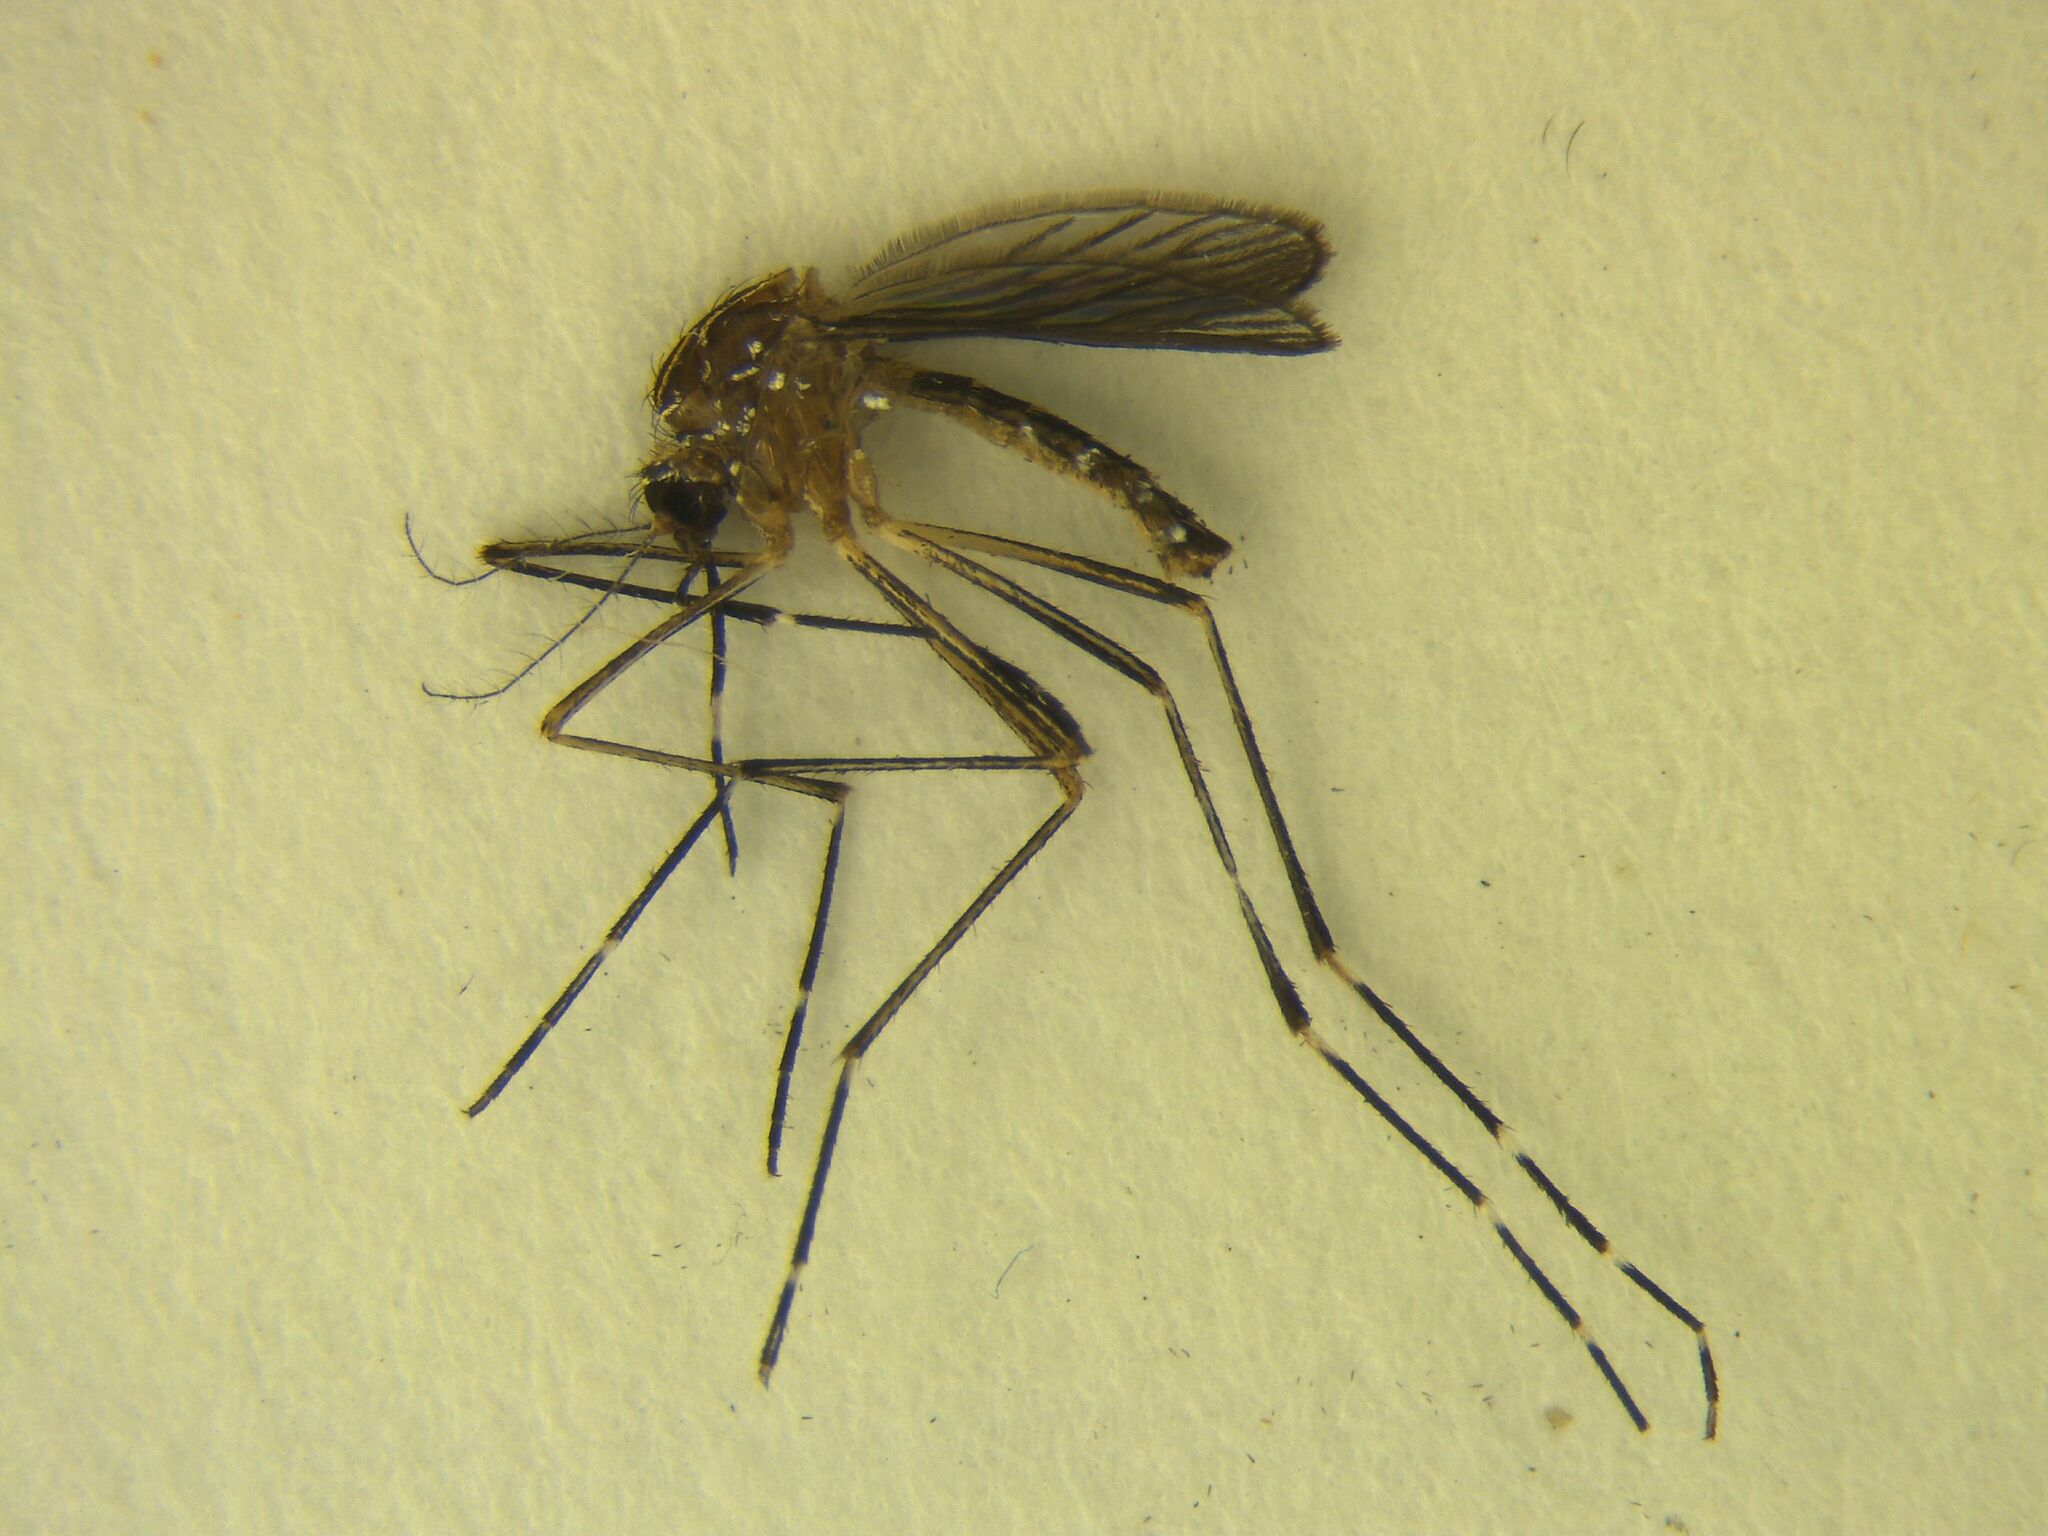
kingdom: Animalia
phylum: Arthropoda
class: Insecta
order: Diptera
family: Culicidae
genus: Aedes
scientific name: Aedes notoscriptus
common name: Australian backyard mosquito
